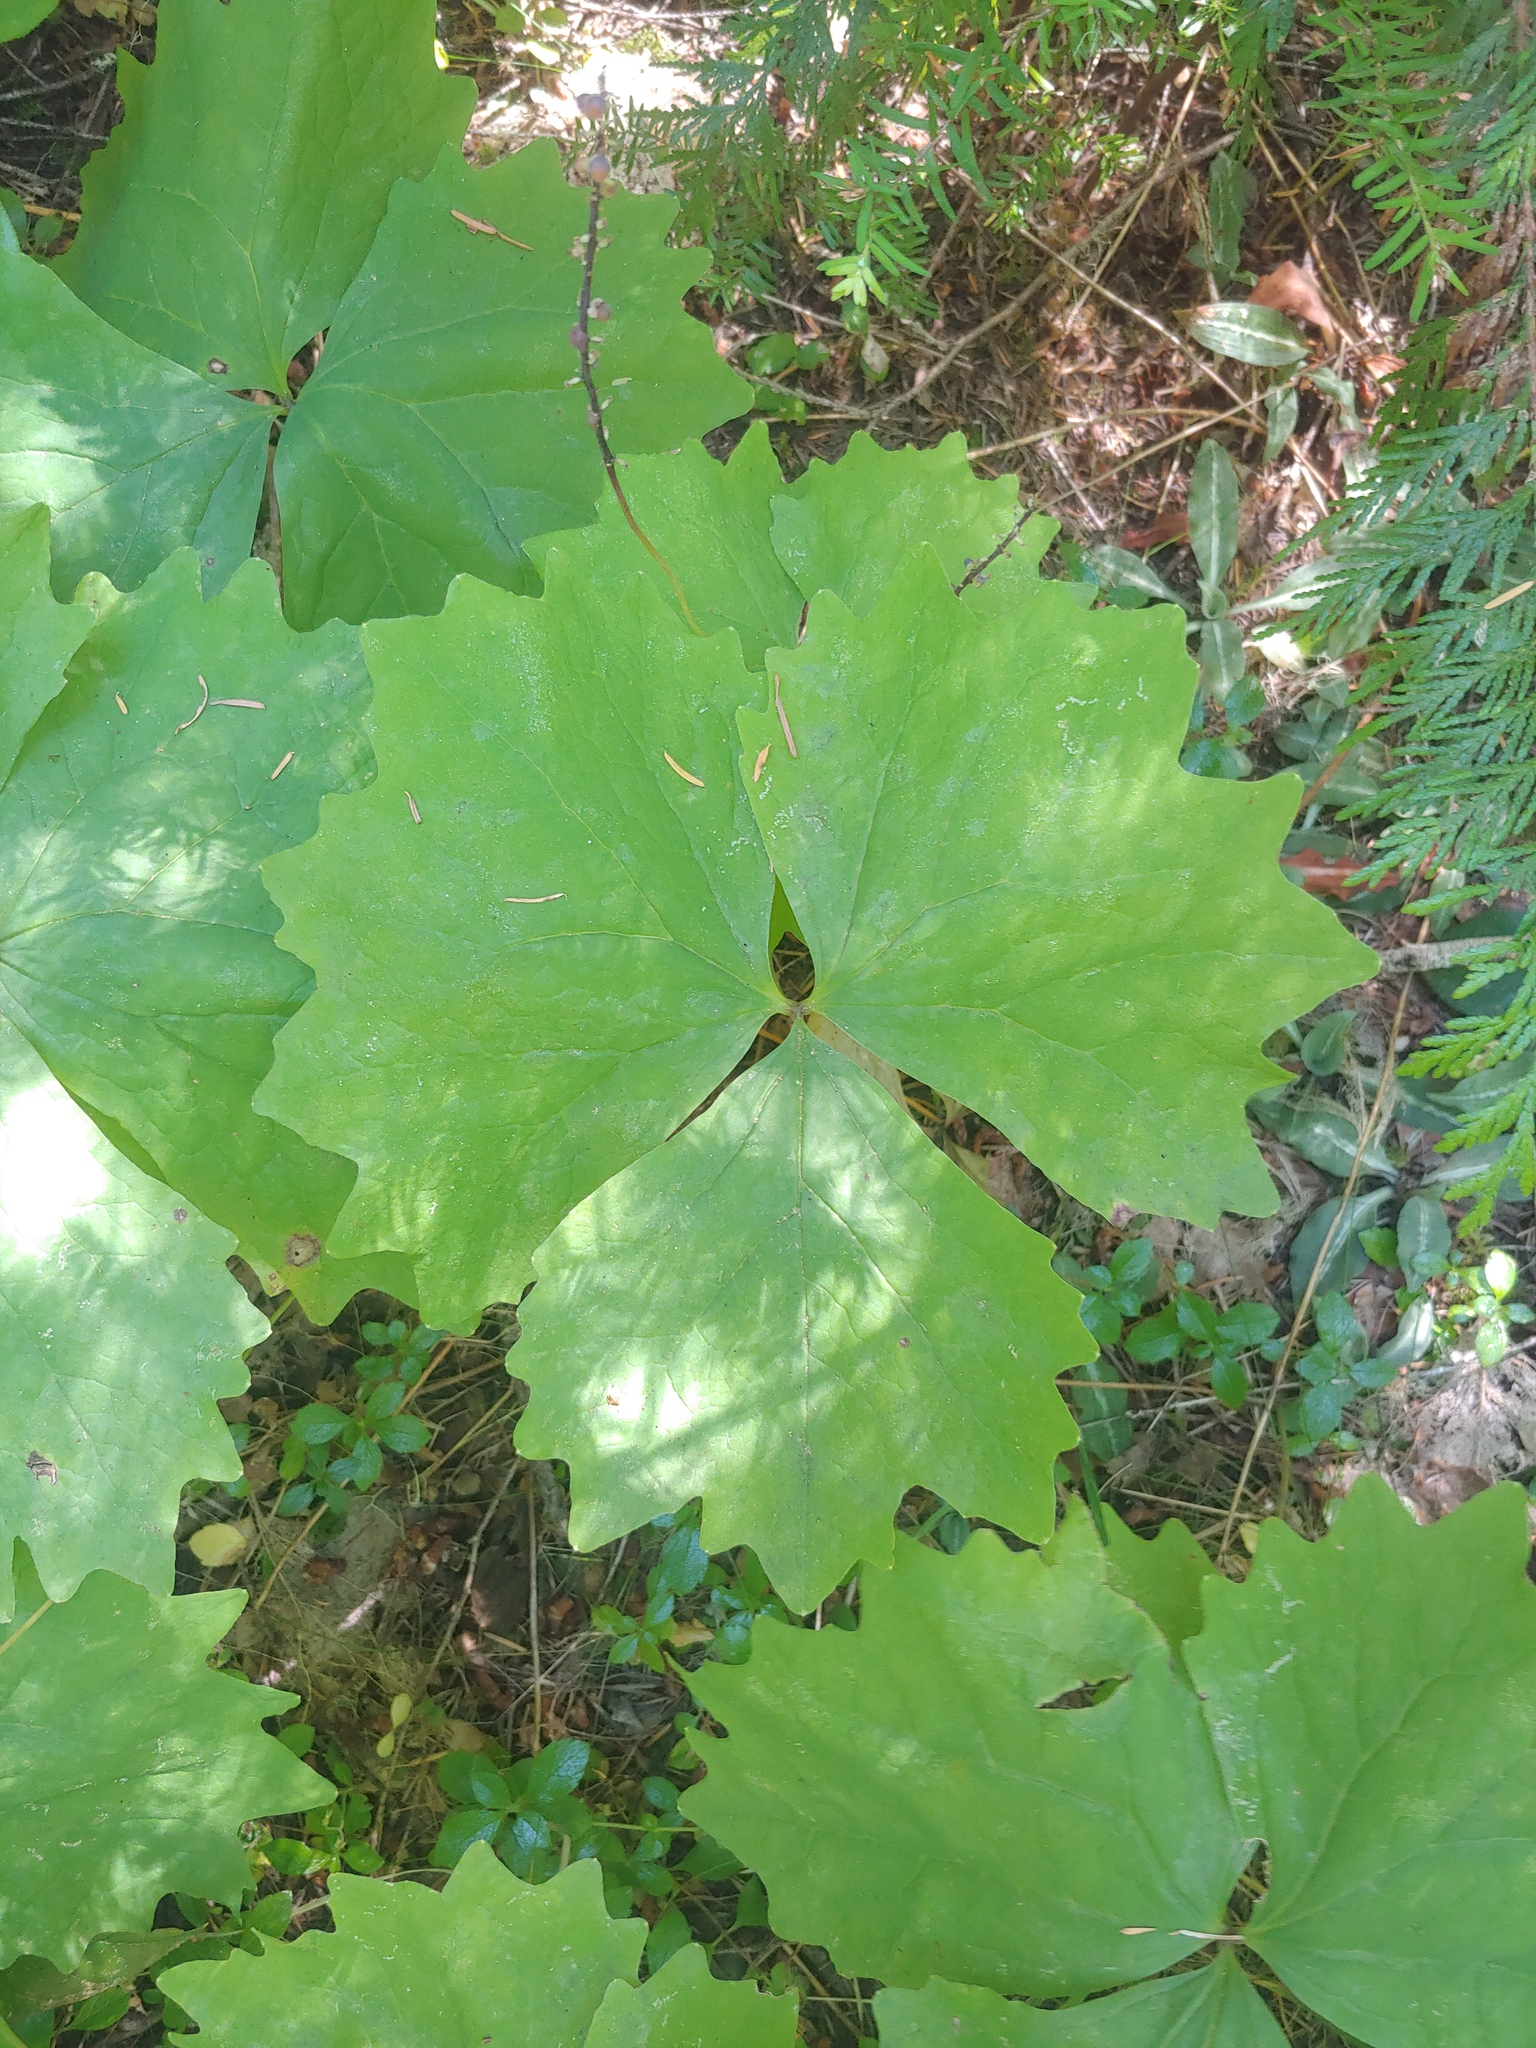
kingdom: Plantae
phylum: Tracheophyta
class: Magnoliopsida
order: Ranunculales
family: Berberidaceae
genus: Achlys
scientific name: Achlys californica
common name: California deer-foot
